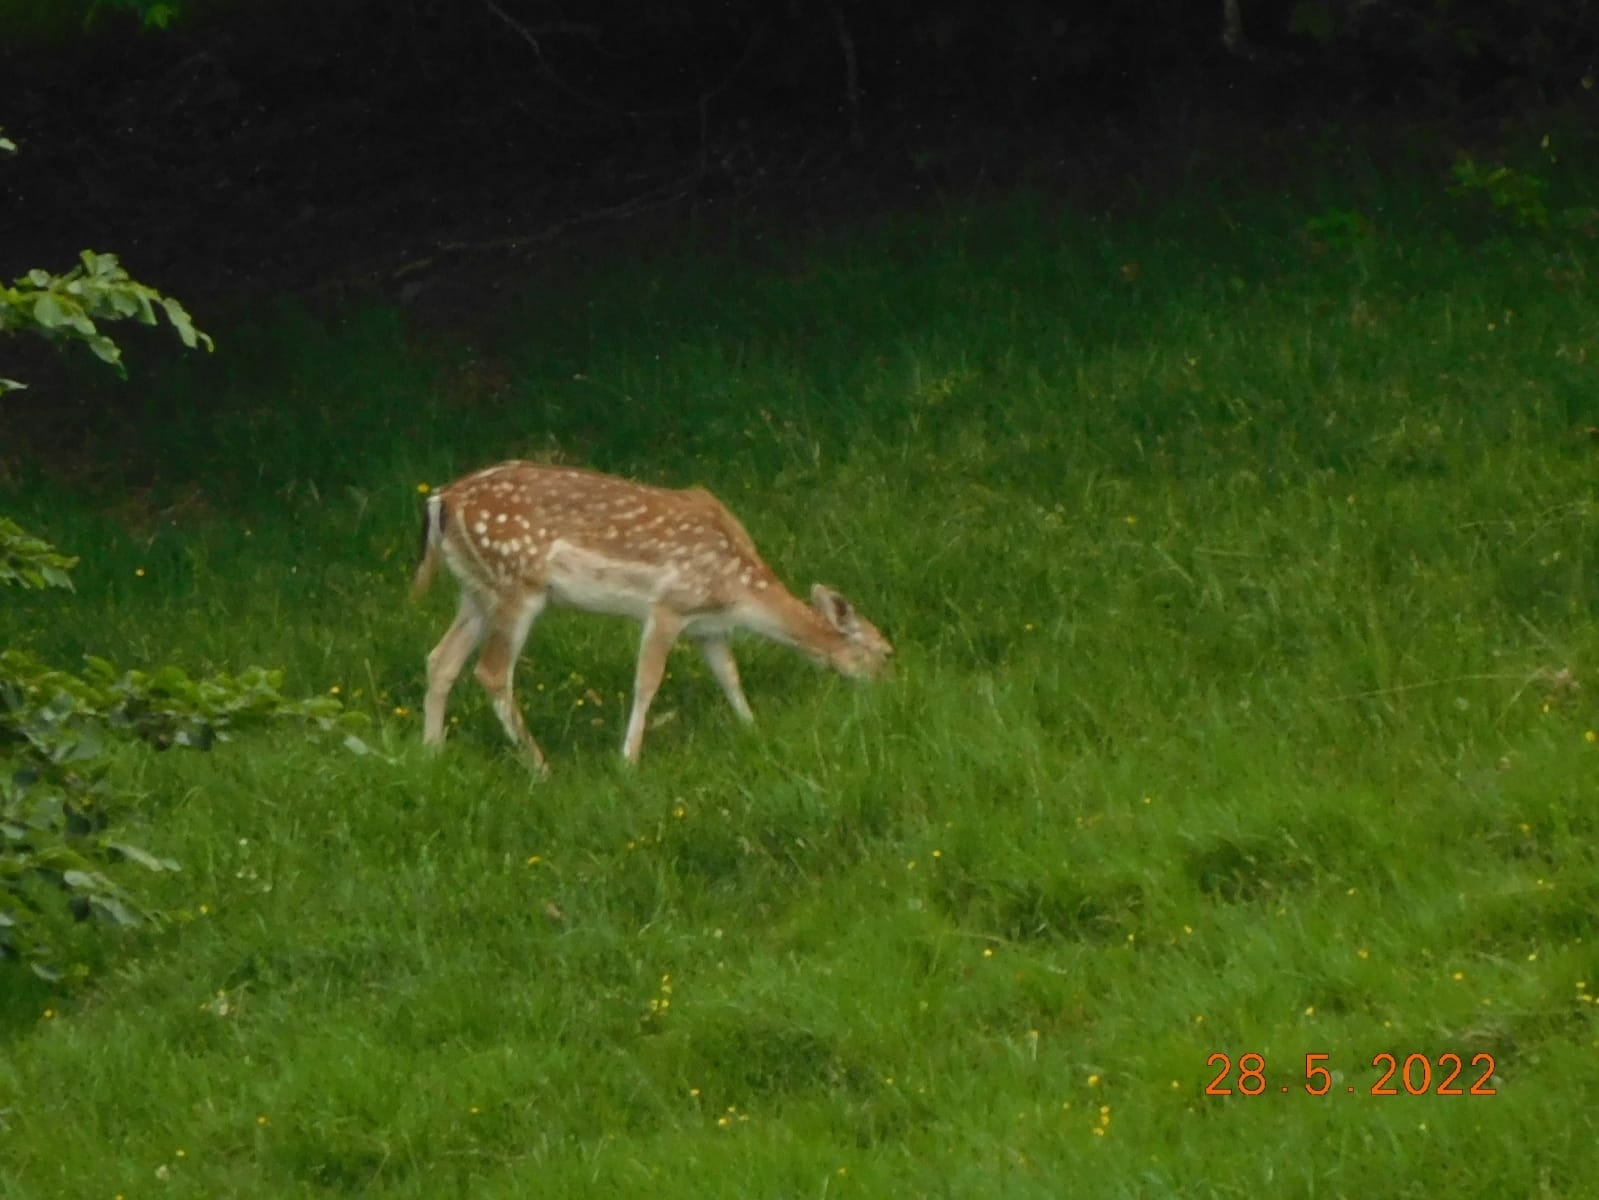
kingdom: Animalia
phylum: Chordata
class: Mammalia
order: Artiodactyla
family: Cervidae
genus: Dama
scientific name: Dama dama
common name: Fallow deer
